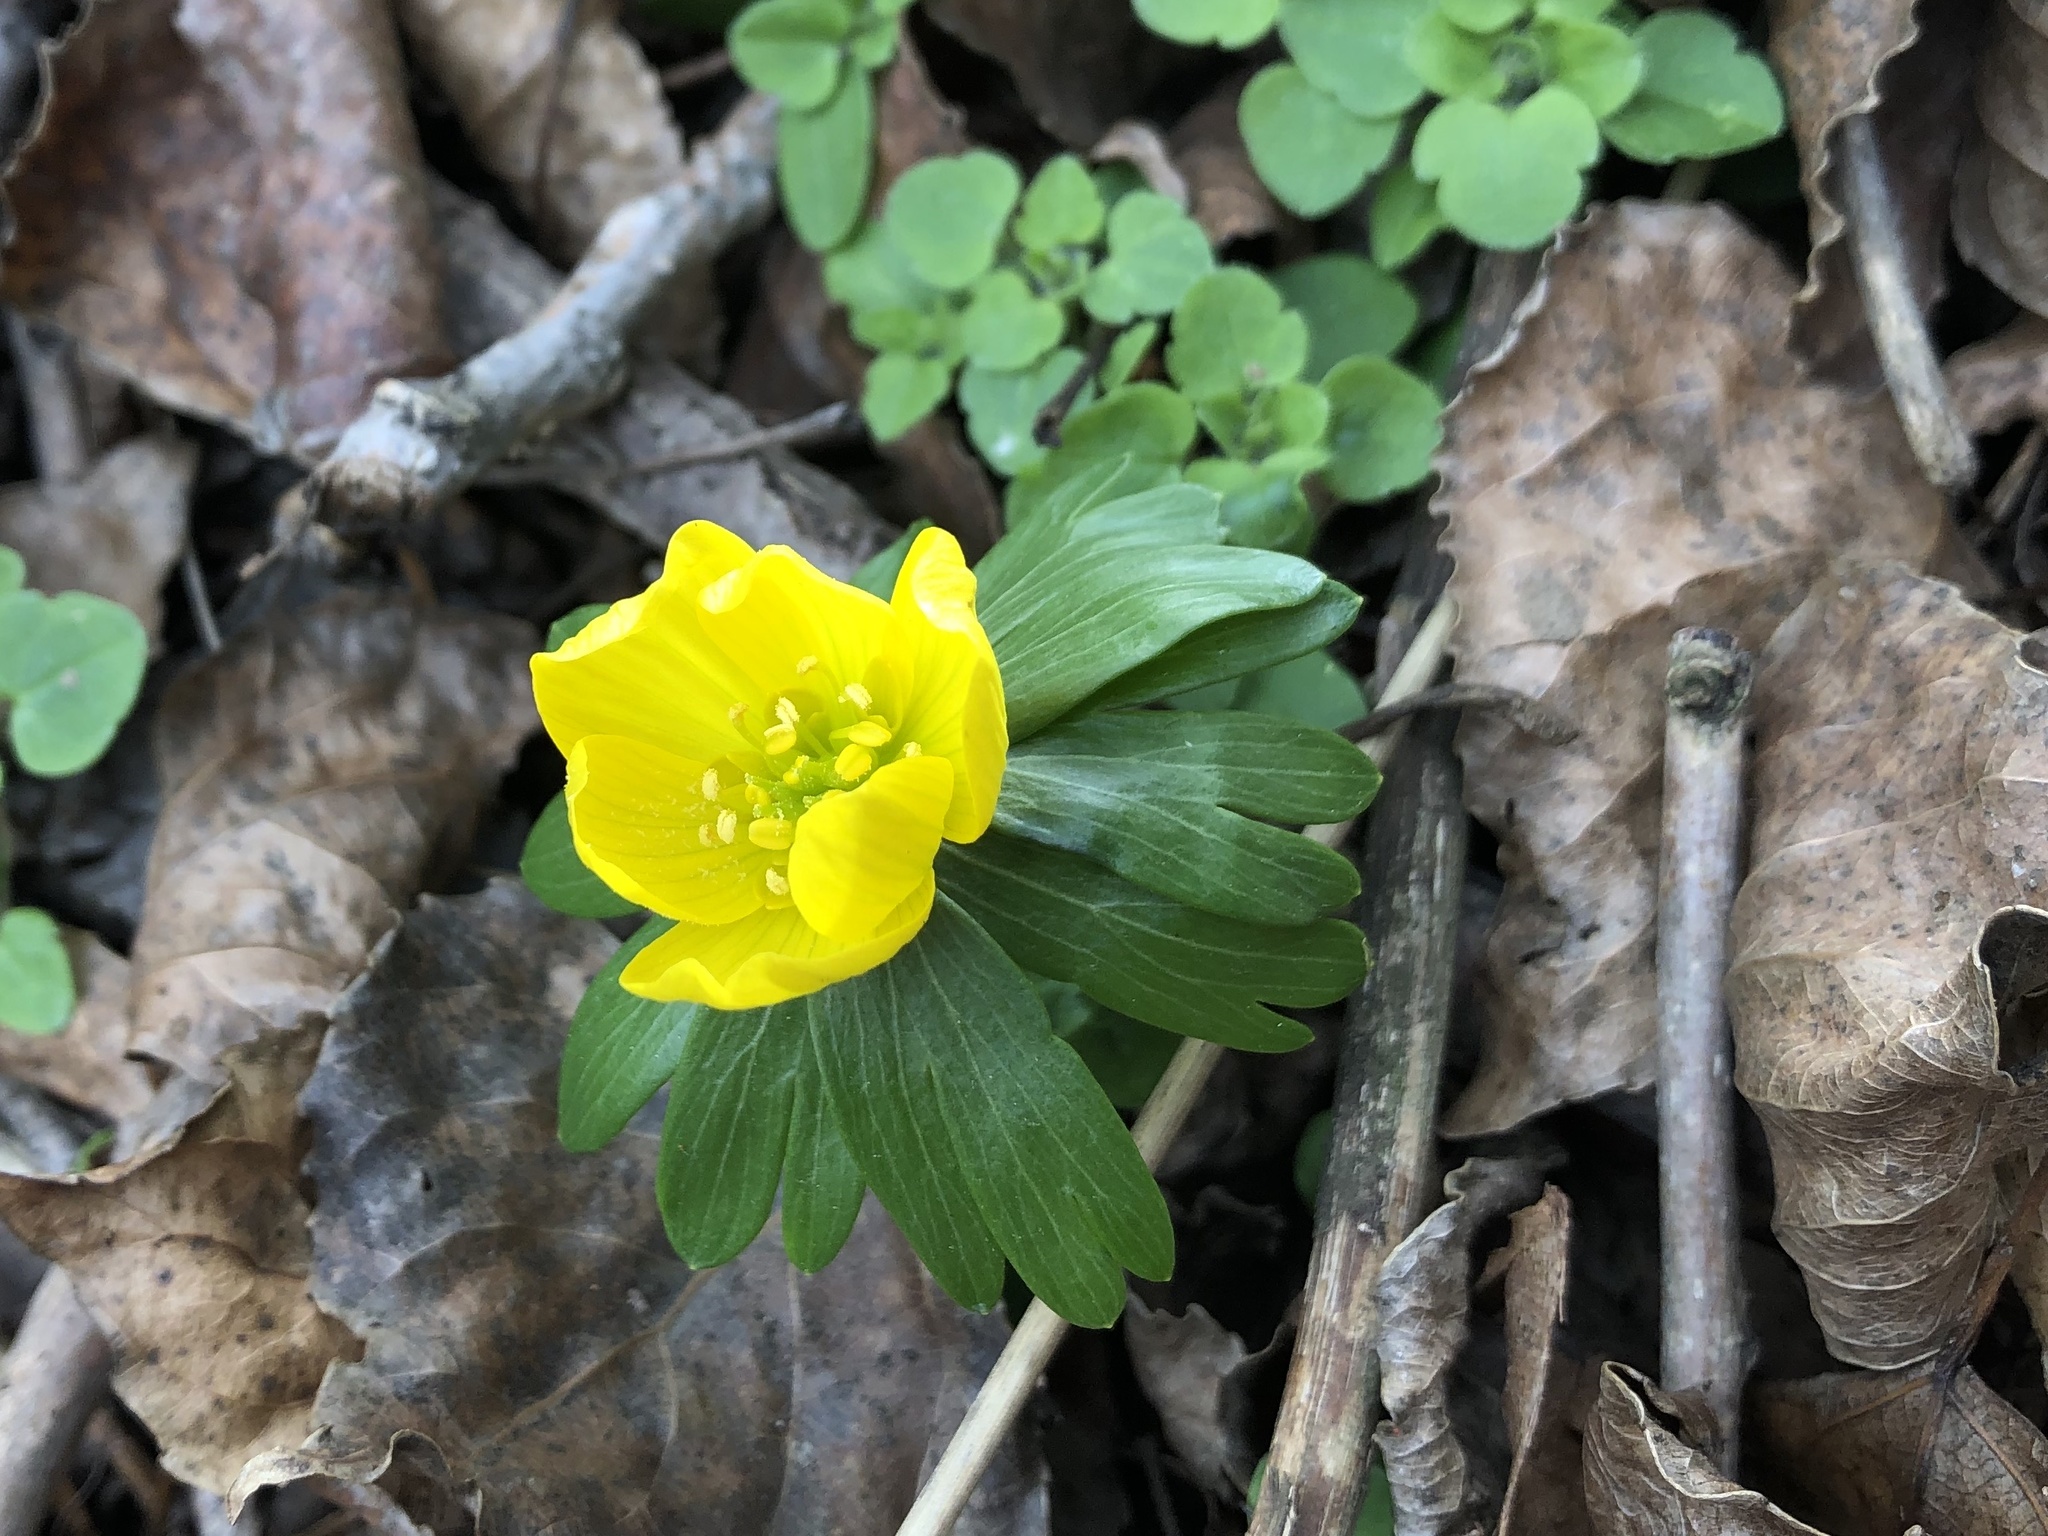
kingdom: Plantae
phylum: Tracheophyta
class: Magnoliopsida
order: Ranunculales
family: Ranunculaceae
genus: Eranthis
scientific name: Eranthis hyemalis
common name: Winter aconite
